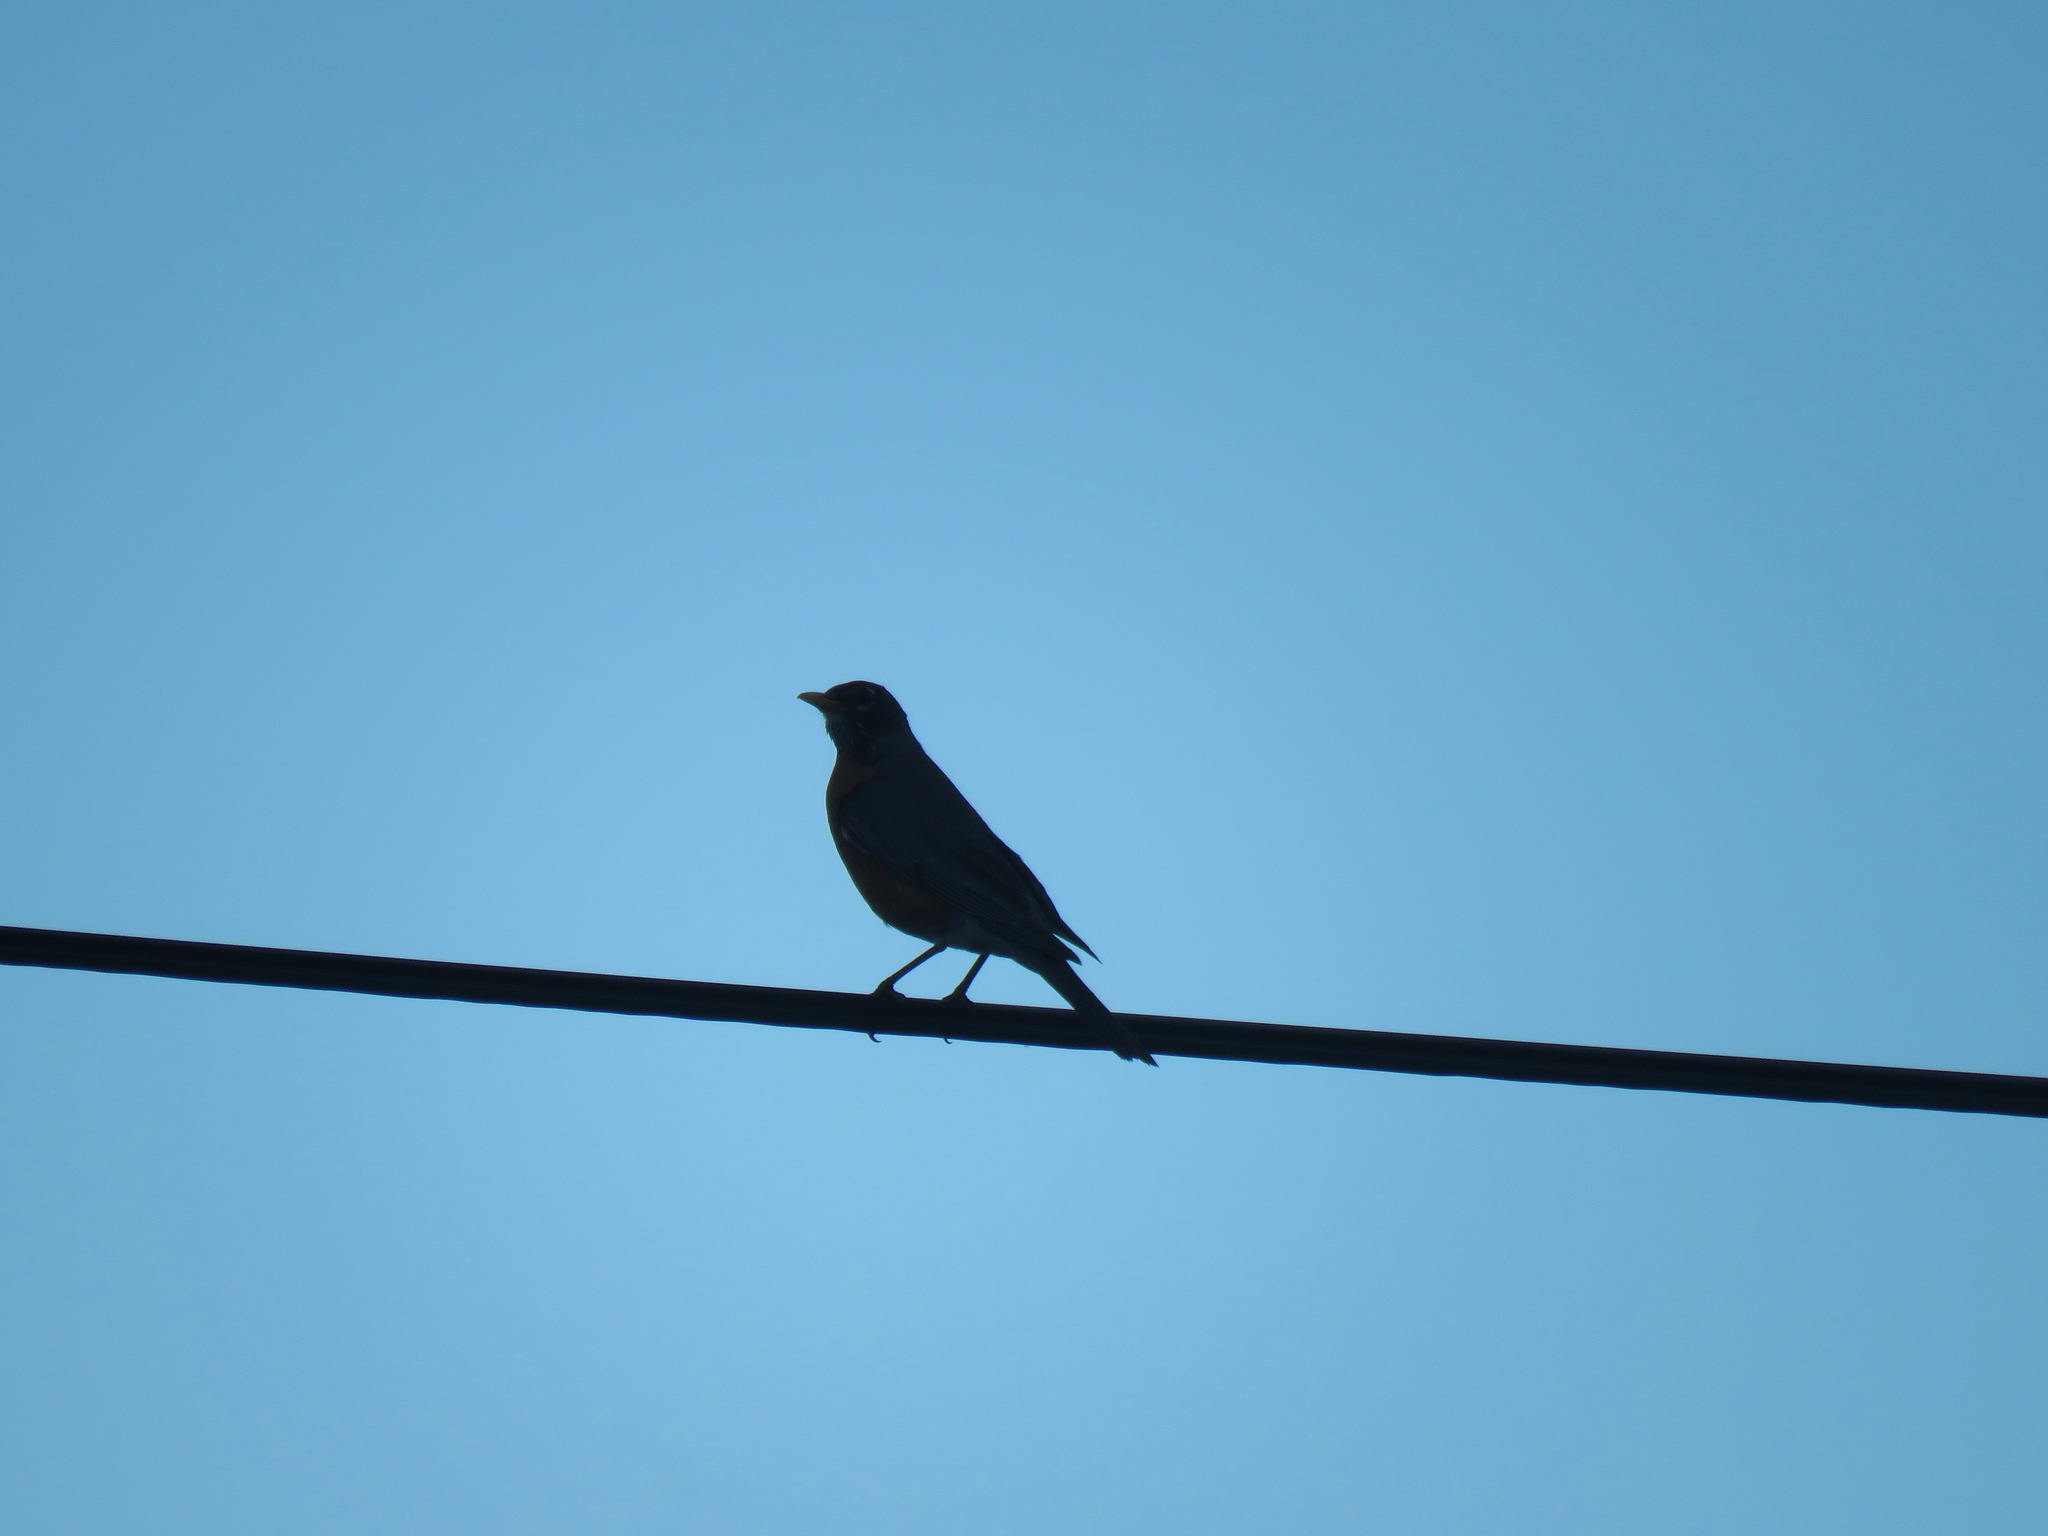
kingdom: Animalia
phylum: Chordata
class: Aves
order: Passeriformes
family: Turdidae
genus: Turdus
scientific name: Turdus migratorius
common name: American robin
